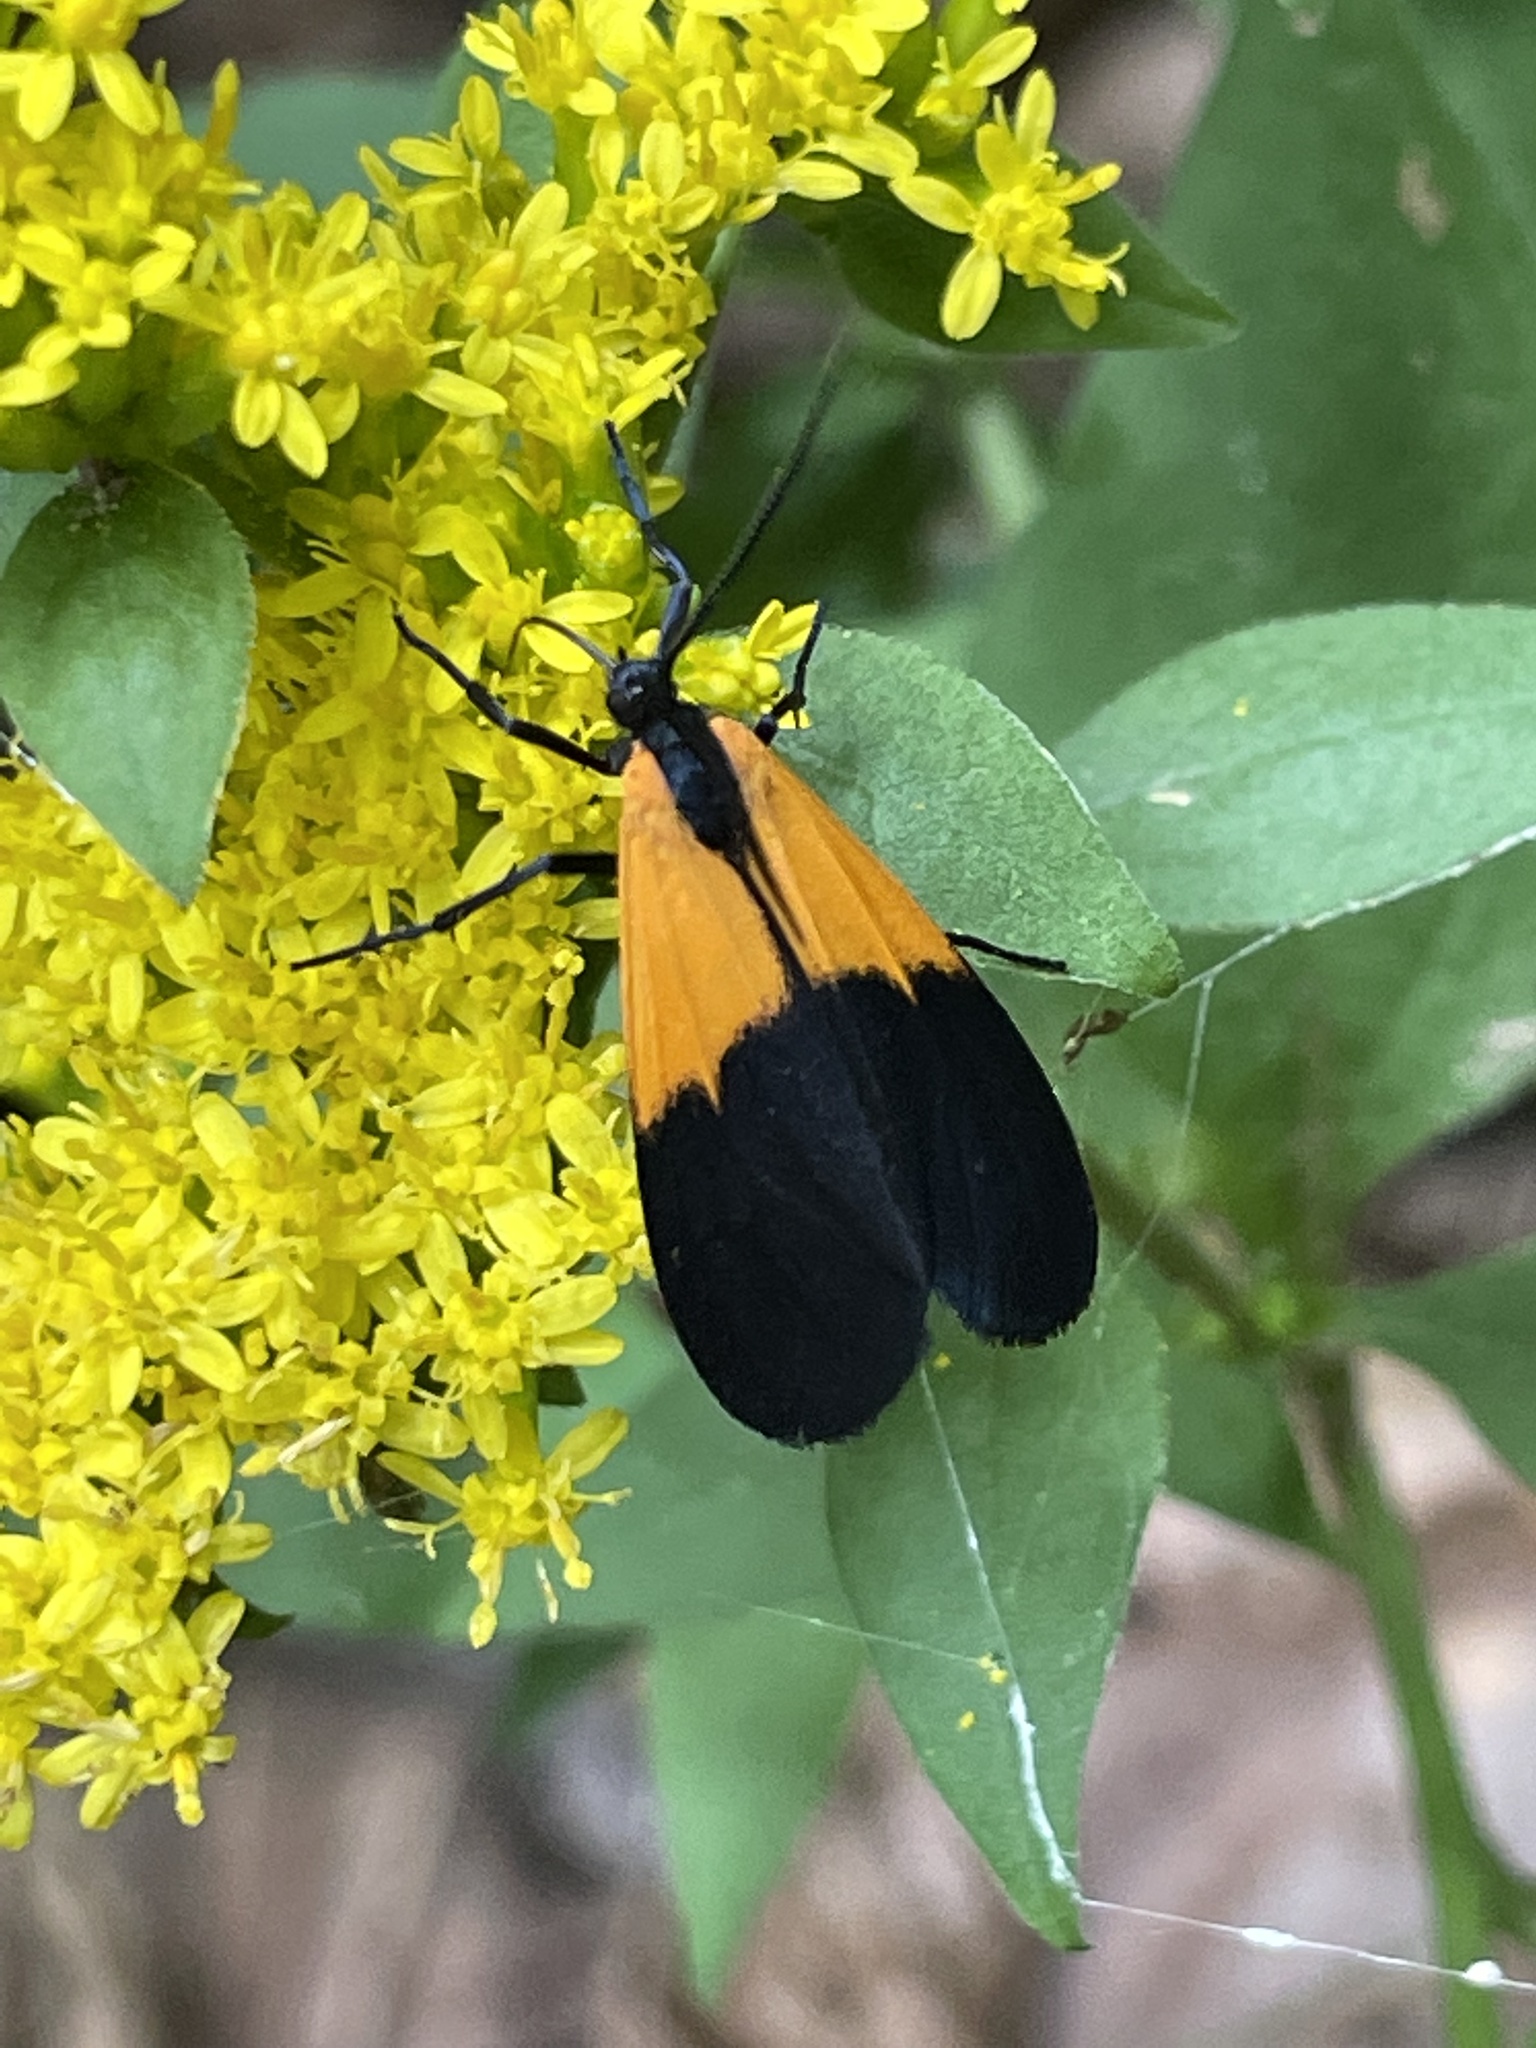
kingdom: Animalia
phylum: Arthropoda
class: Insecta
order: Lepidoptera
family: Erebidae
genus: Lycomorpha
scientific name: Lycomorpha pholus
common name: Black-and-yellow lichen moth
